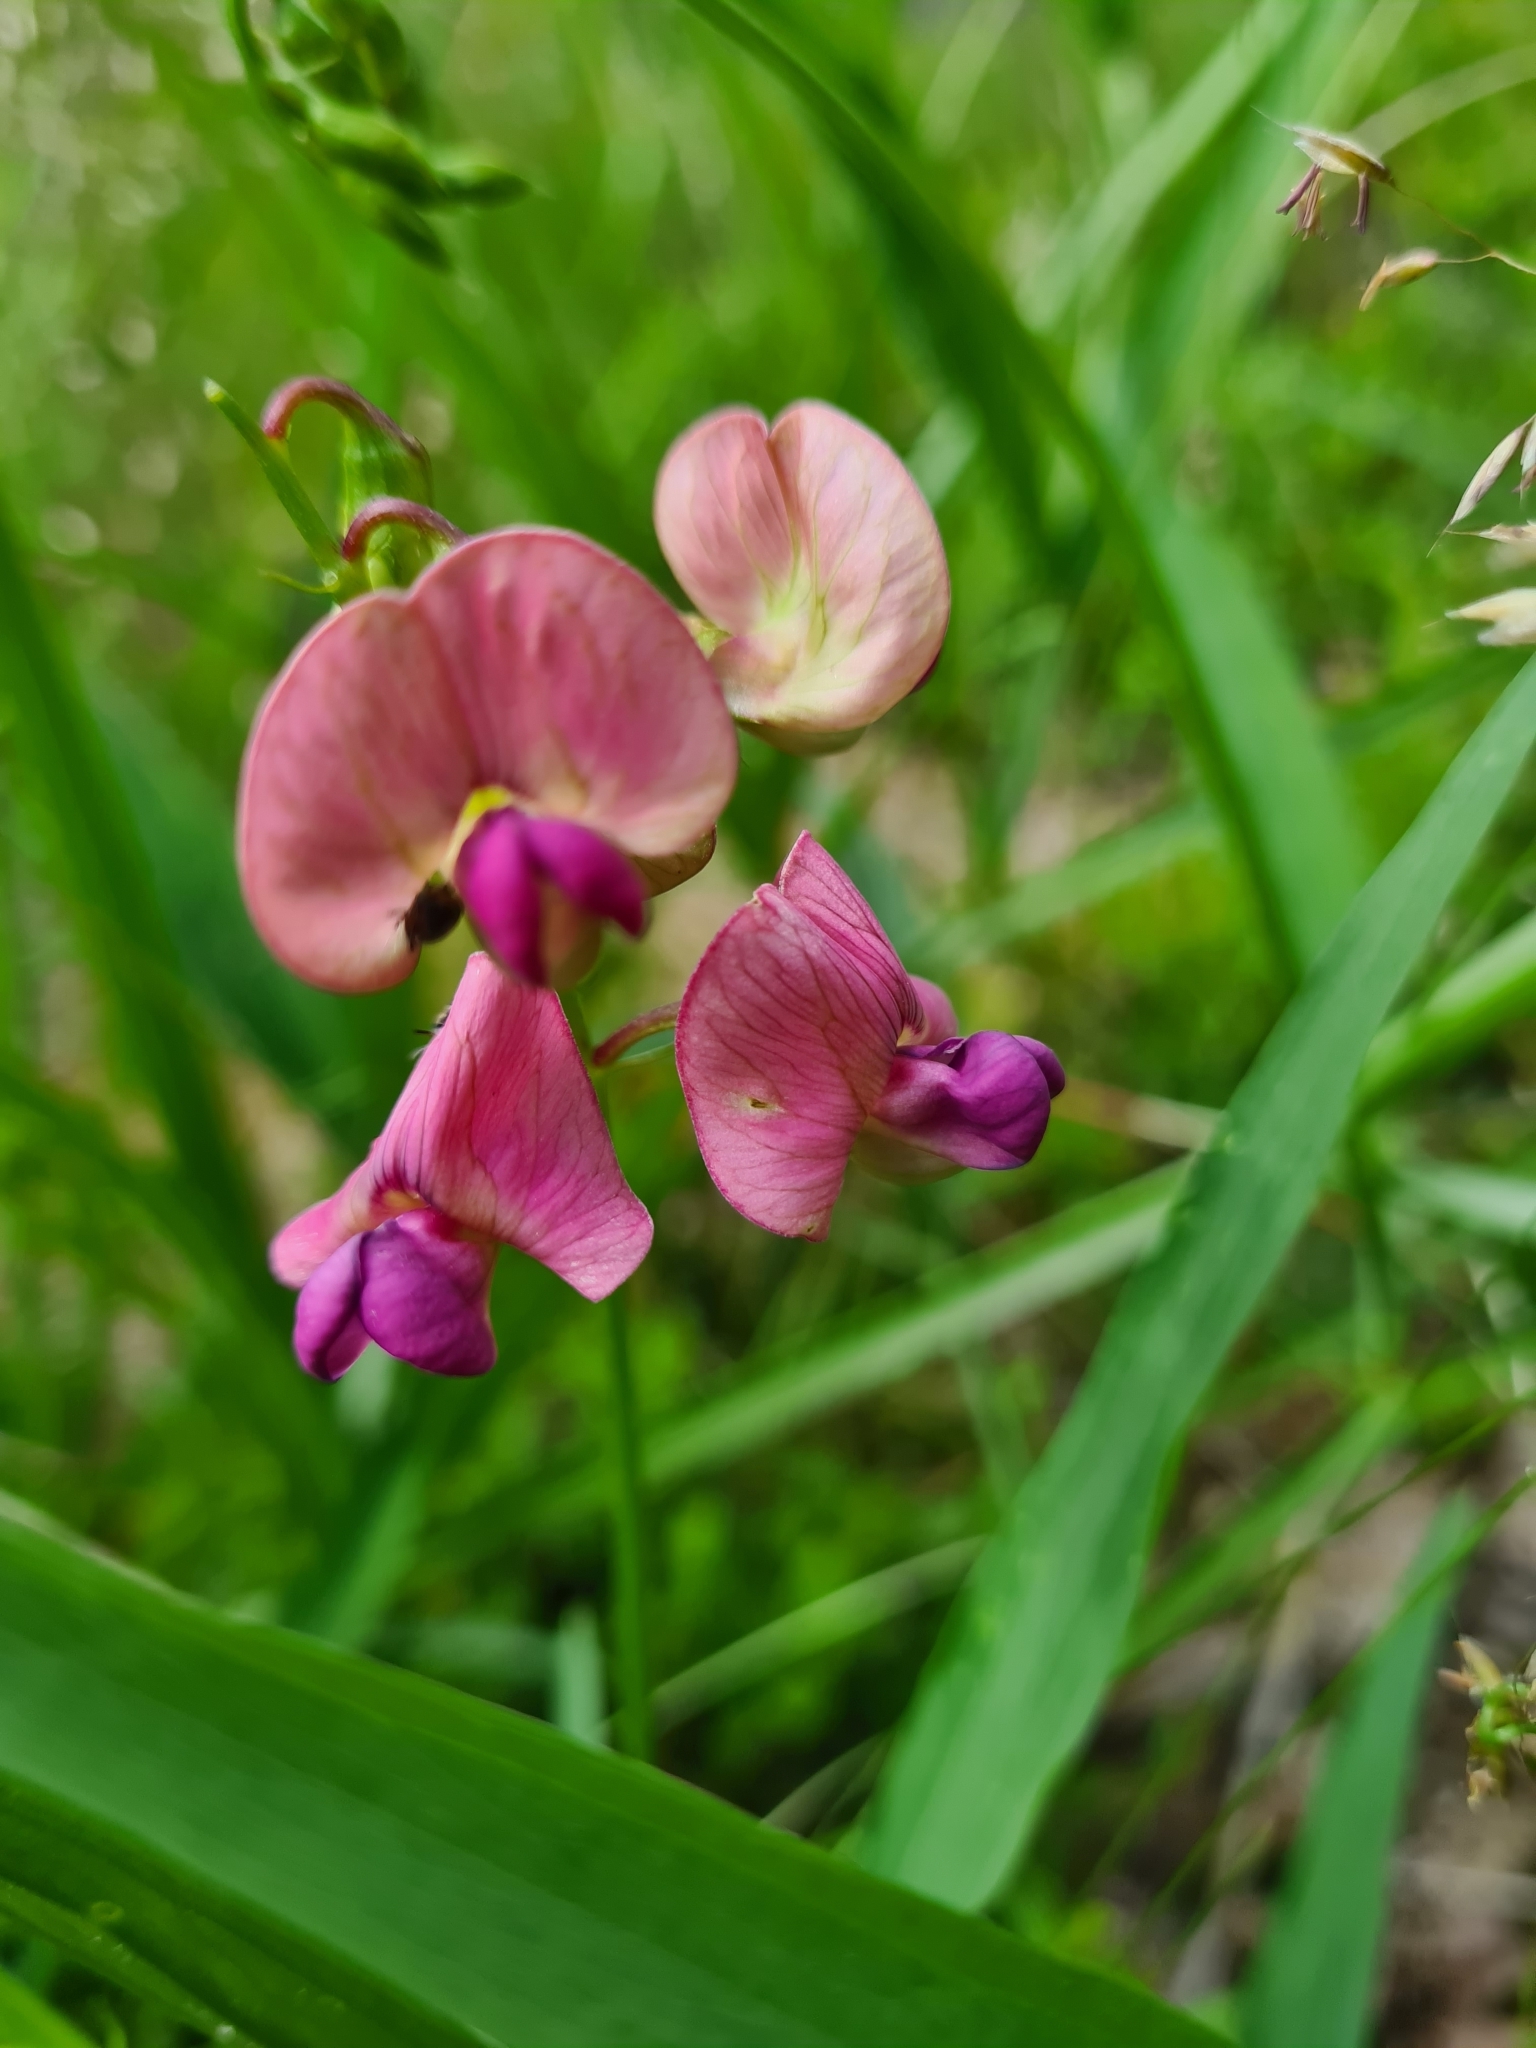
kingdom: Plantae
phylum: Tracheophyta
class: Magnoliopsida
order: Fabales
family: Fabaceae
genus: Lathyrus
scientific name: Lathyrus sylvestris
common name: Flat pea
